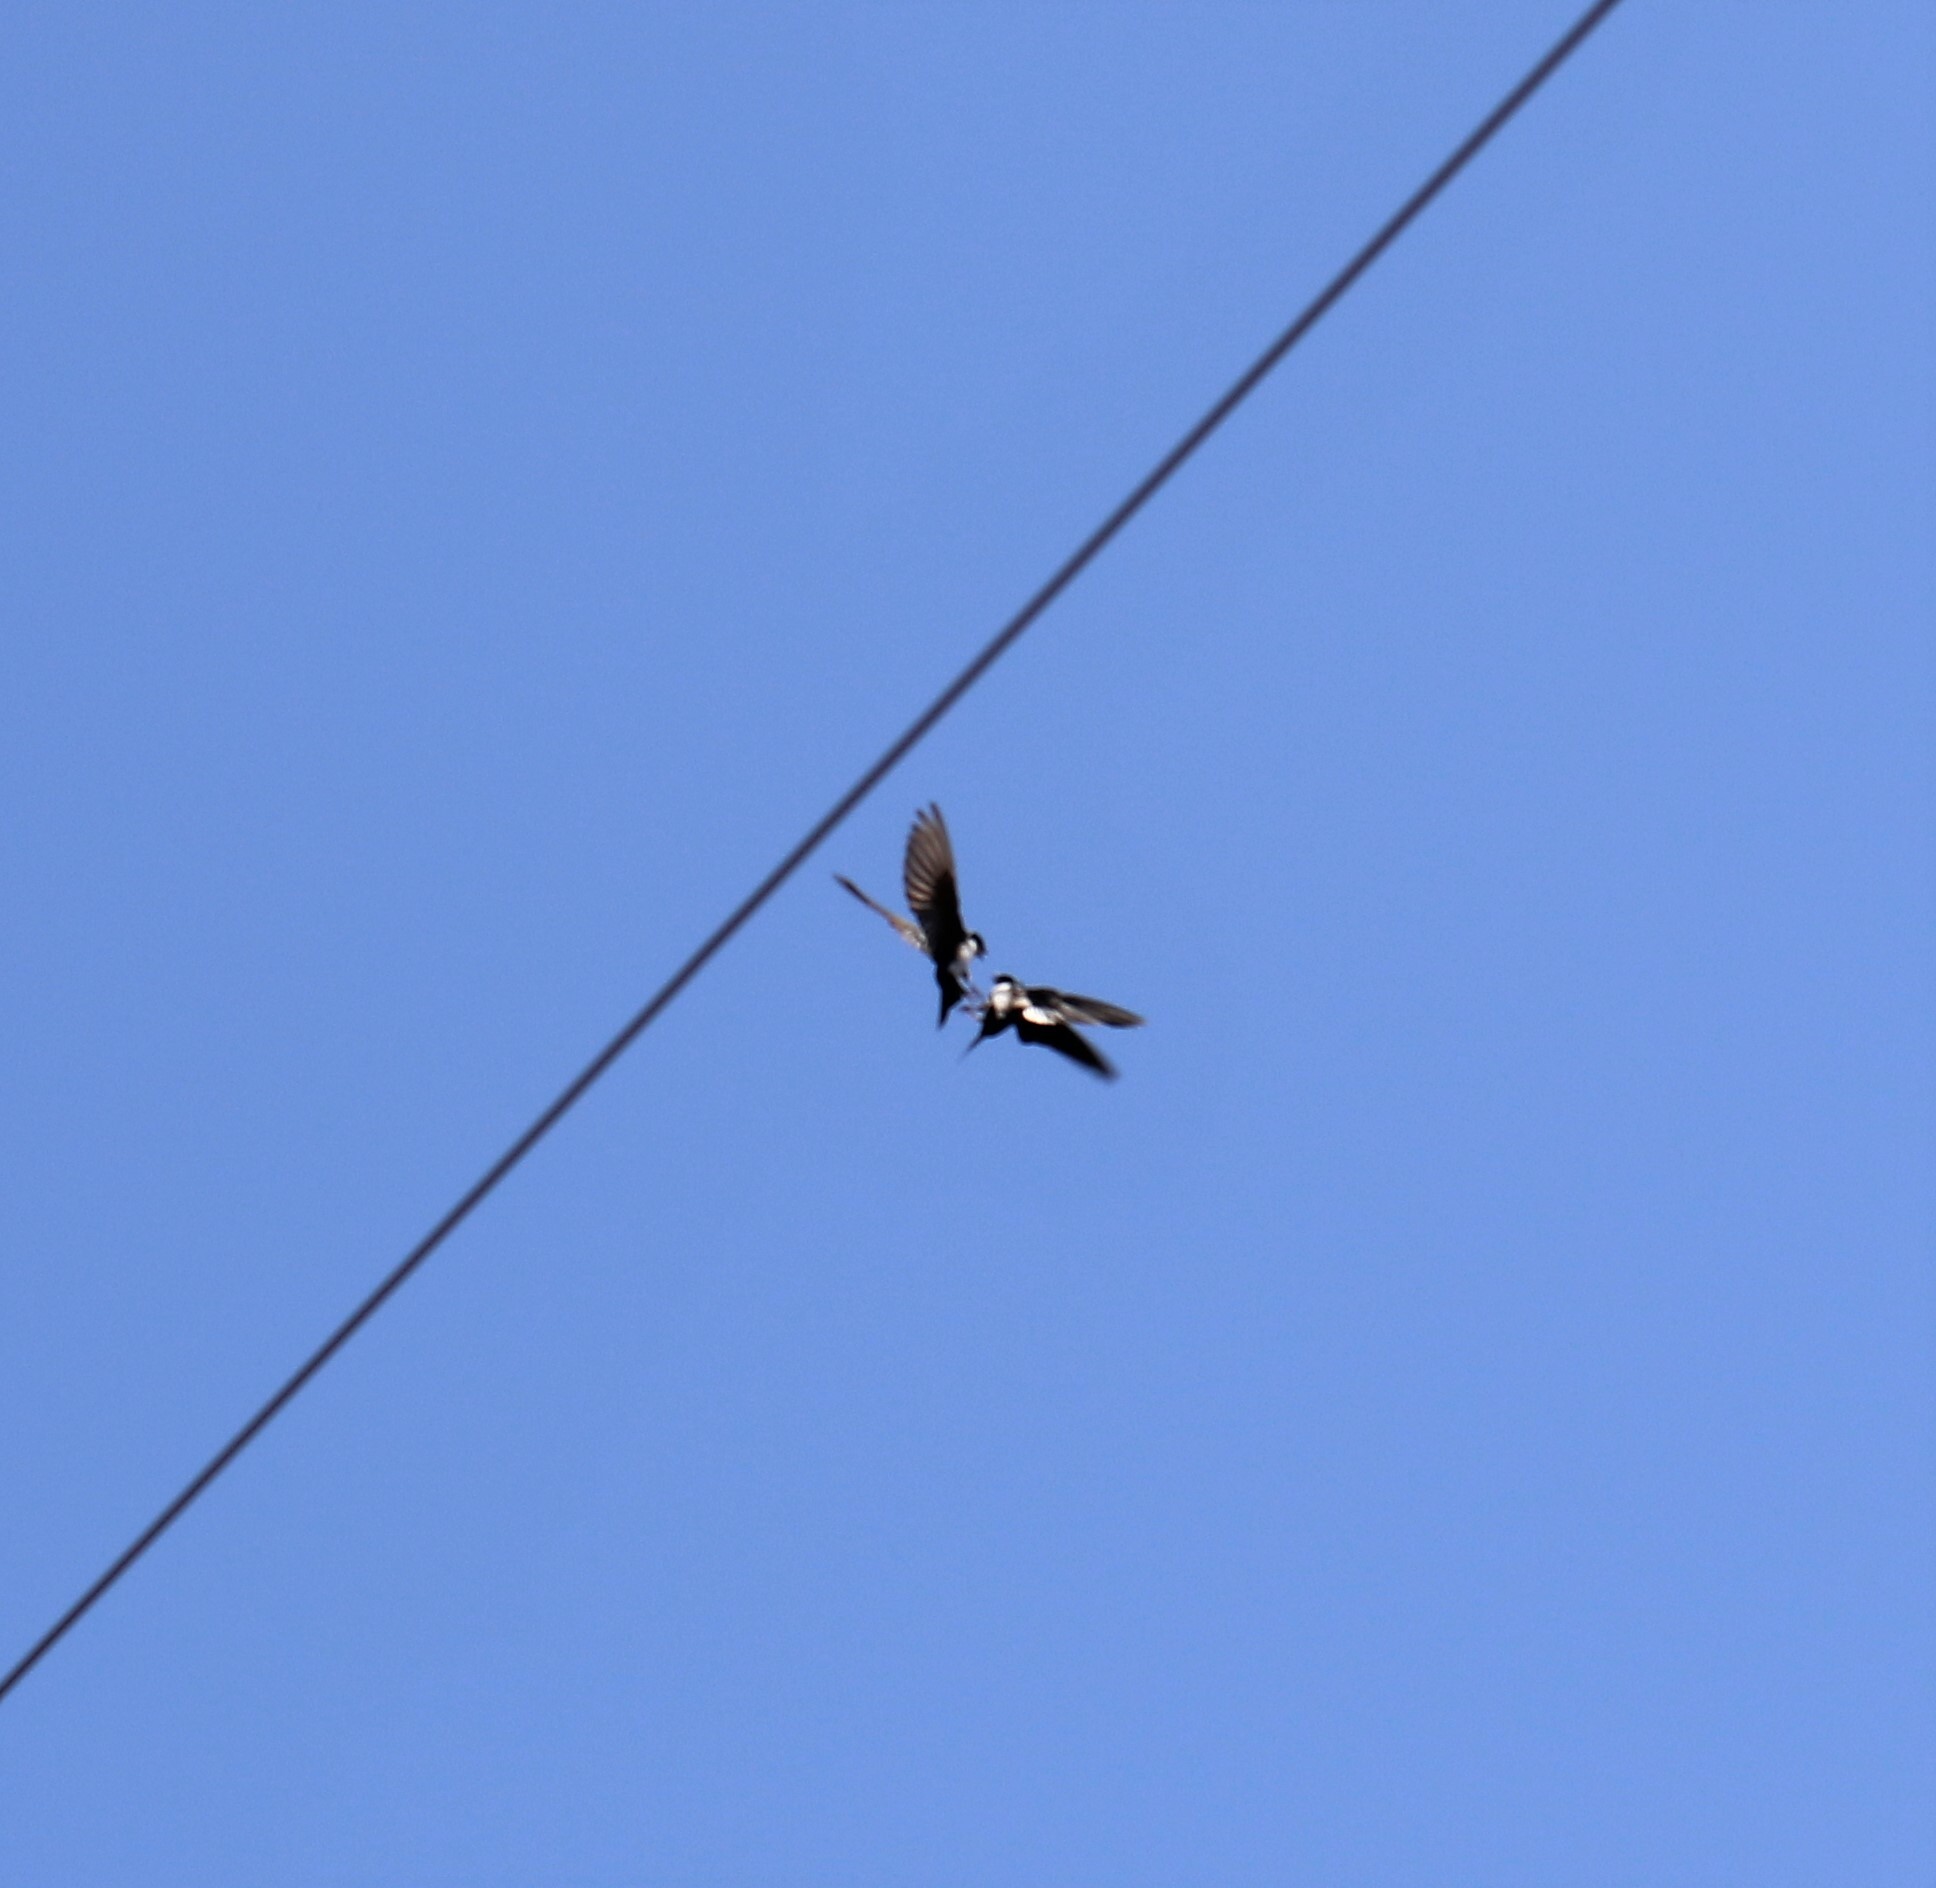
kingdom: Animalia
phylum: Chordata
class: Aves
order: Passeriformes
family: Hirundinidae
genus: Tachycineta
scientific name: Tachycineta bicolor
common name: Tree swallow
